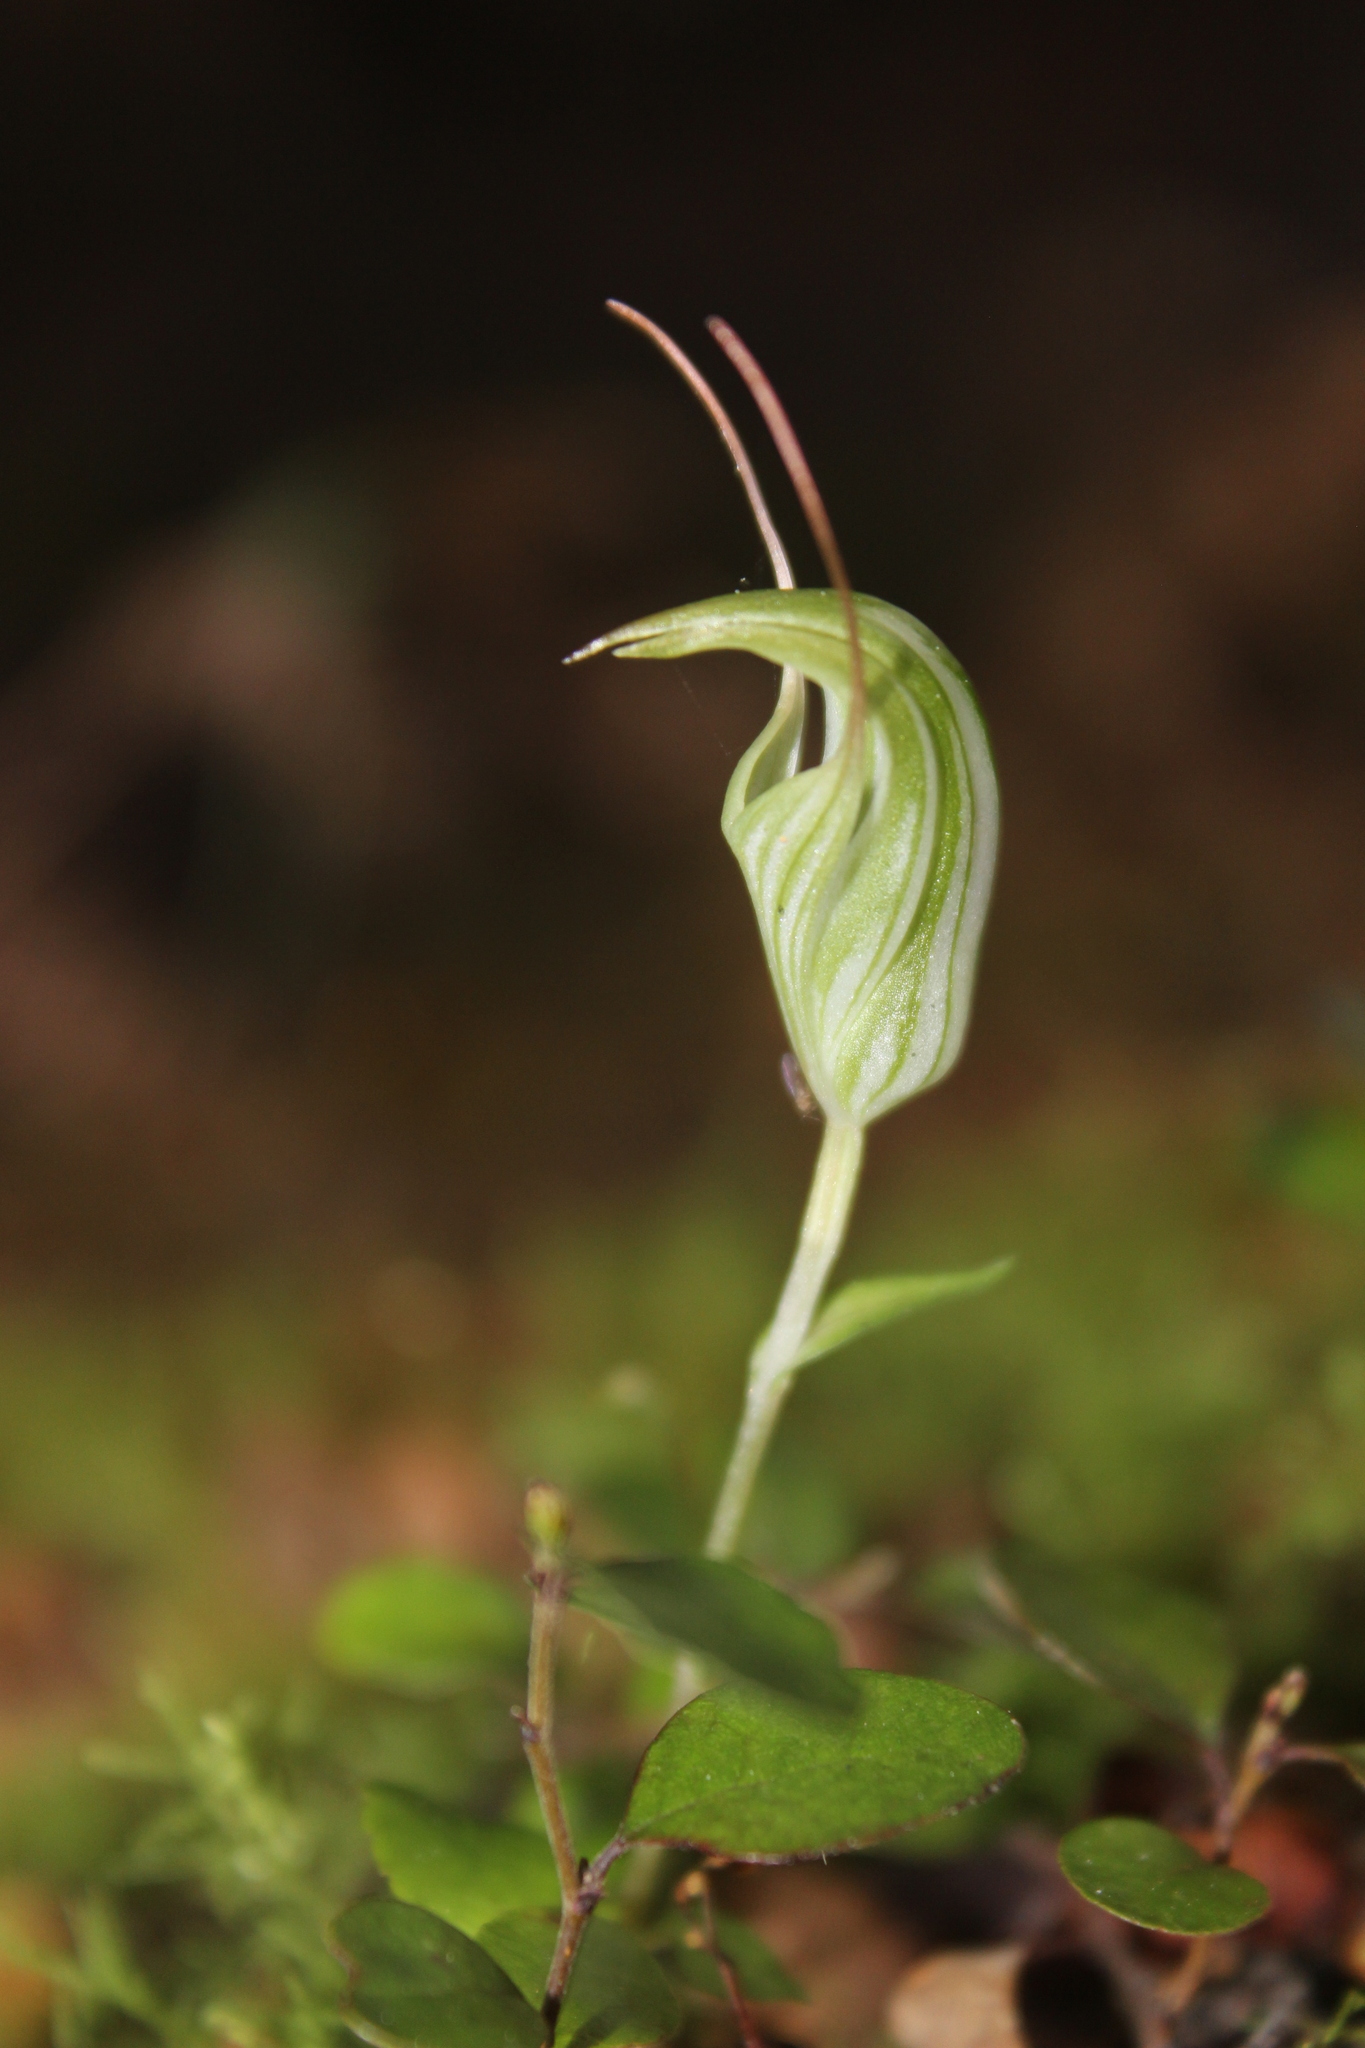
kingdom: Plantae
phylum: Tracheophyta
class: Liliopsida
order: Asparagales
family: Orchidaceae
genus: Pterostylis
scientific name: Pterostylis alobula
